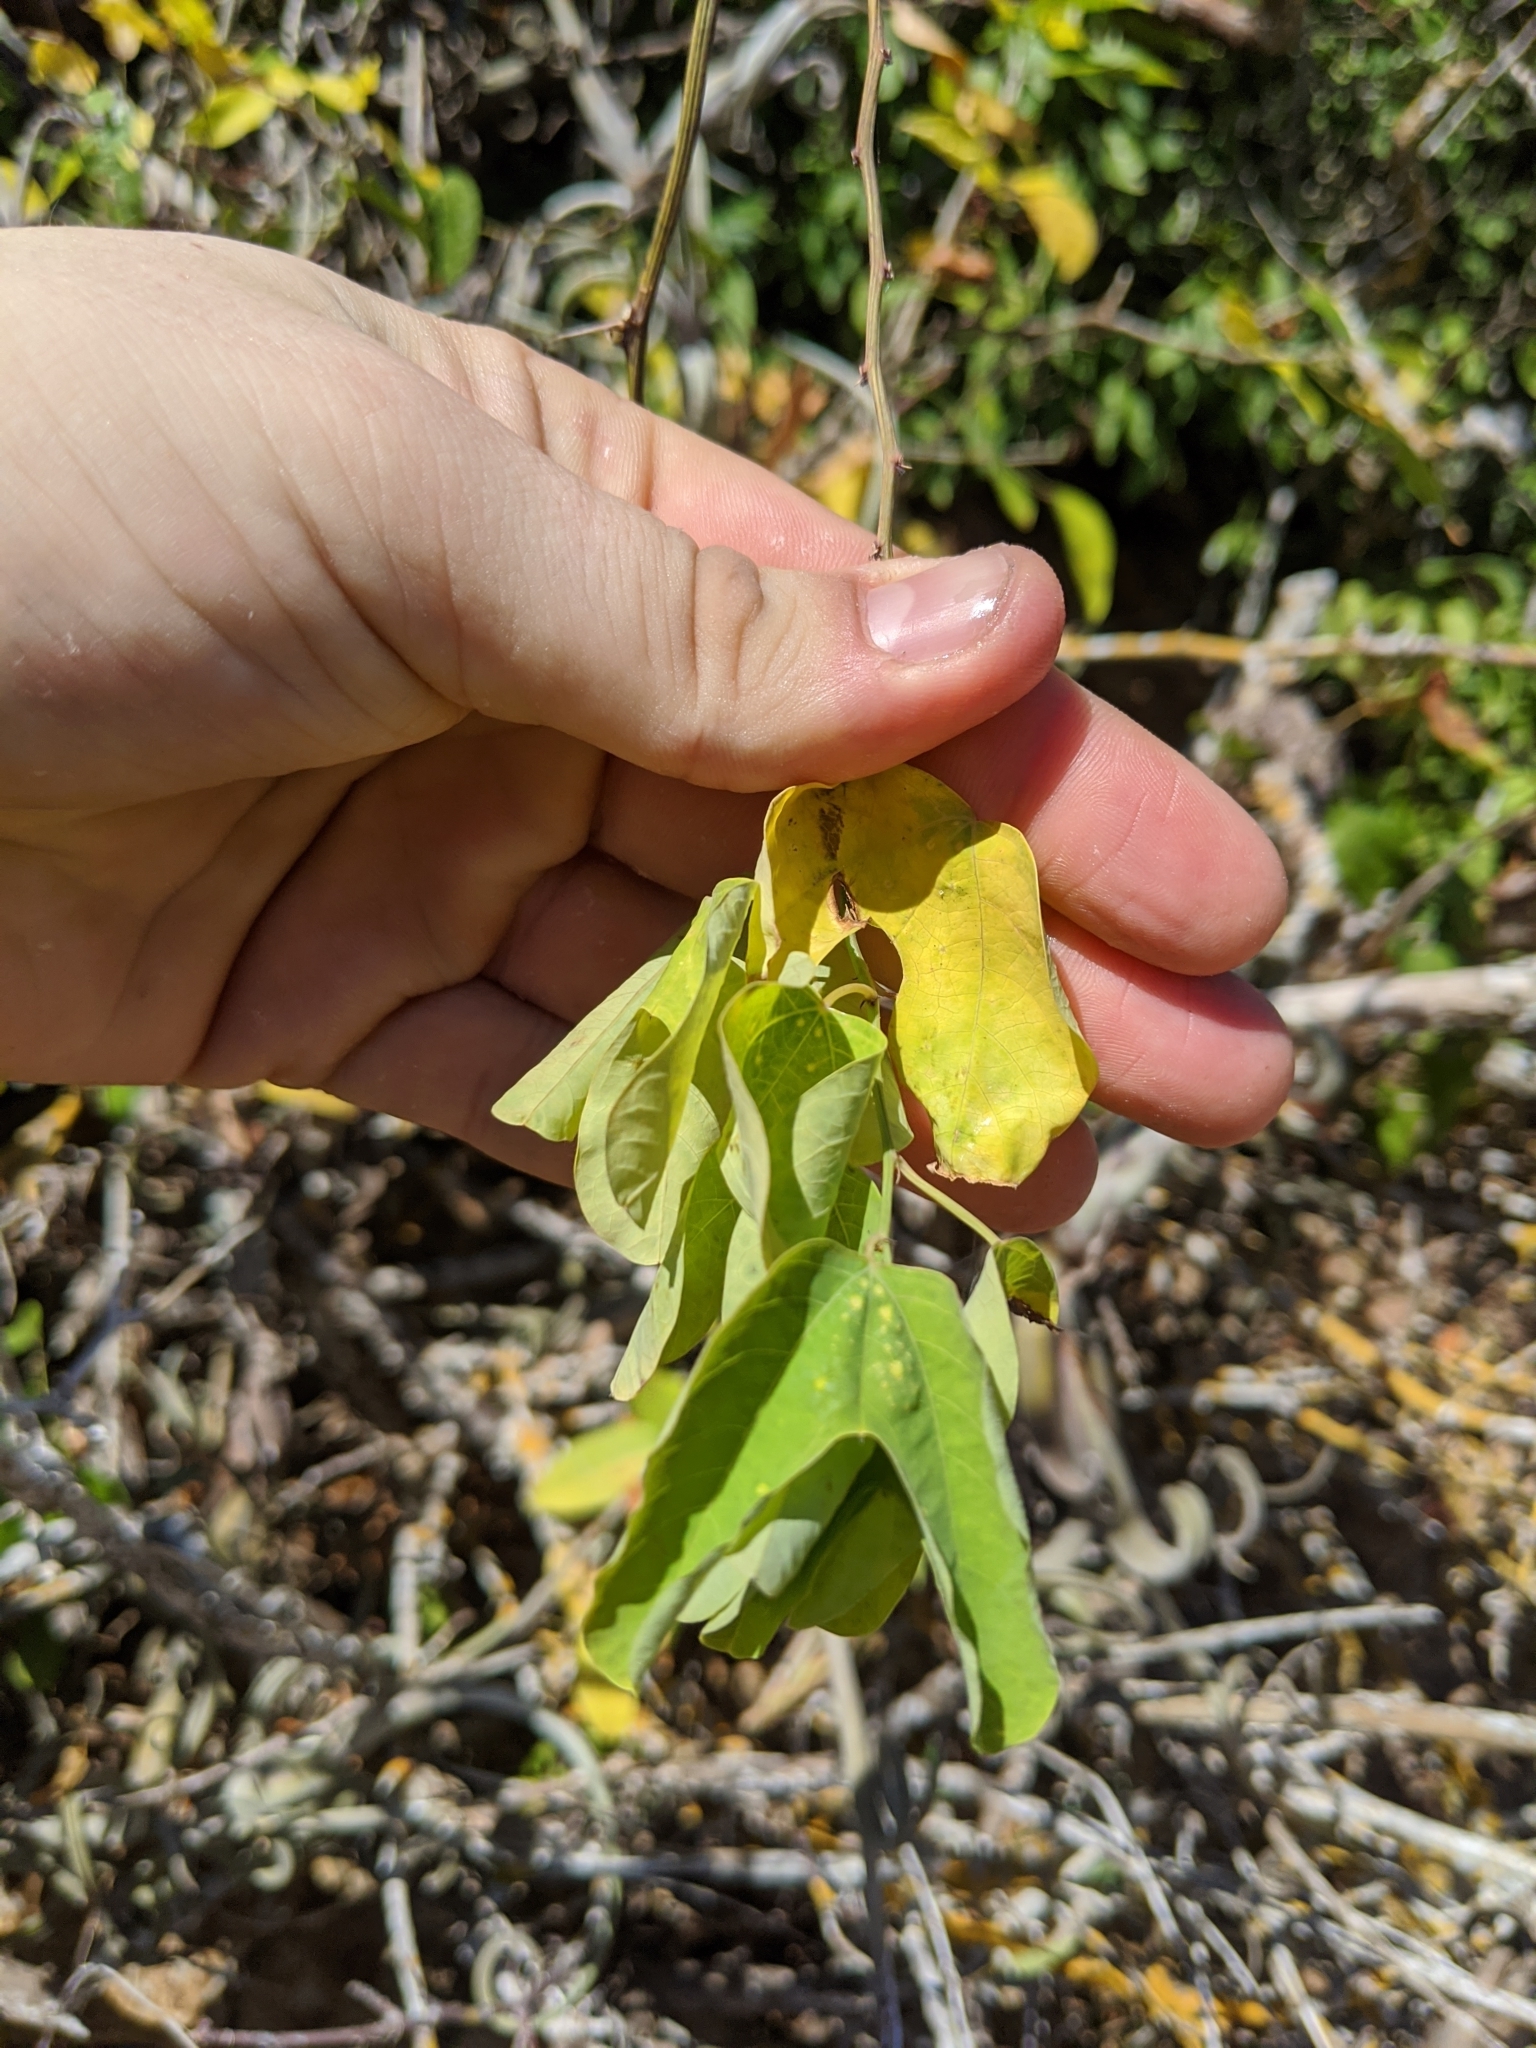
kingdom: Plantae
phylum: Tracheophyta
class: Magnoliopsida
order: Malpighiales
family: Passifloraceae
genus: Passiflora
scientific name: Passiflora mexicana
